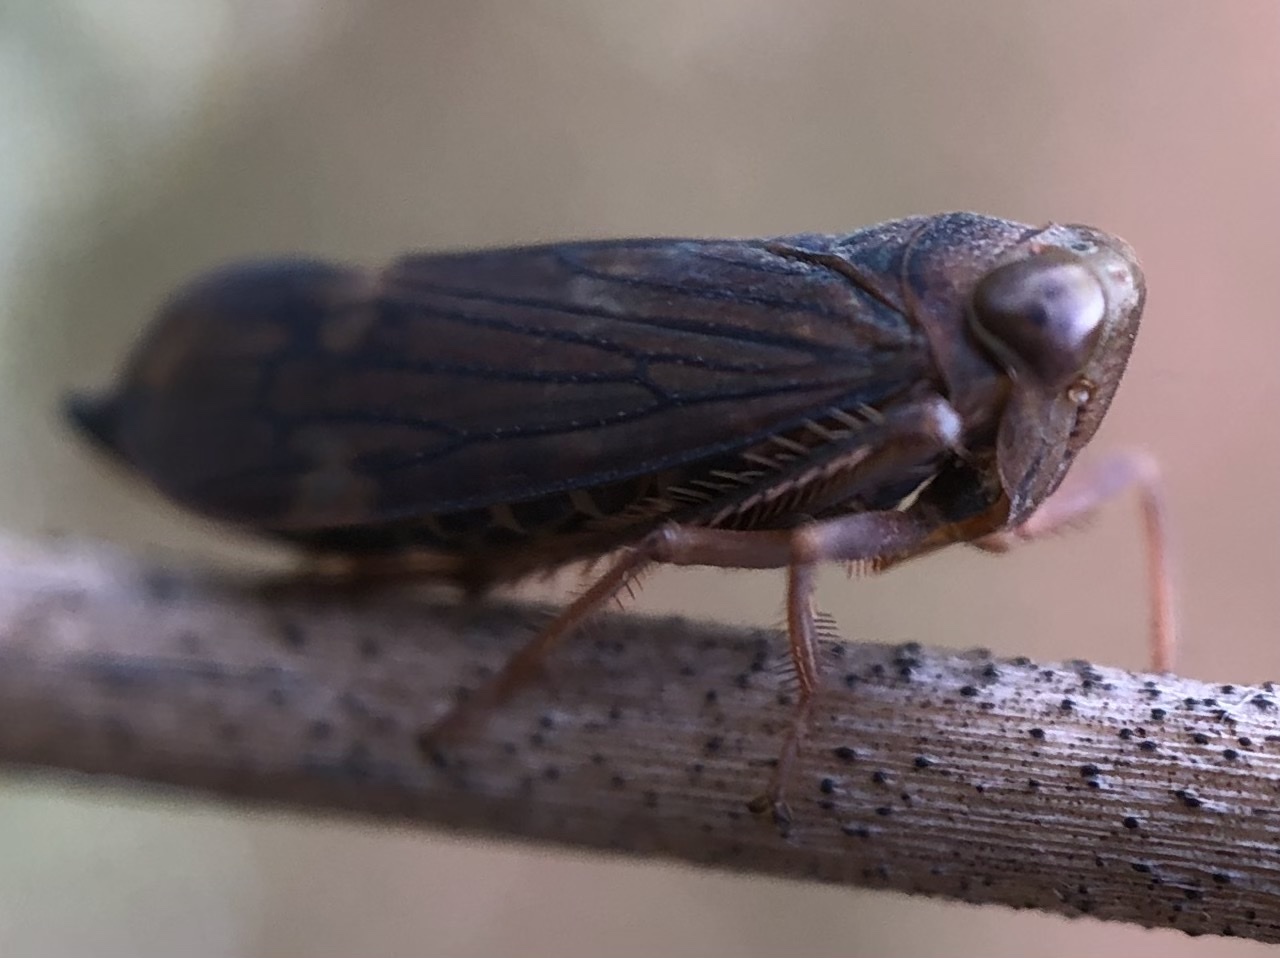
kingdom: Animalia
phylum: Arthropoda
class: Insecta
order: Hemiptera
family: Cicadellidae
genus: Jikradia
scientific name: Jikradia olitoria
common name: Coppery leafhopper
